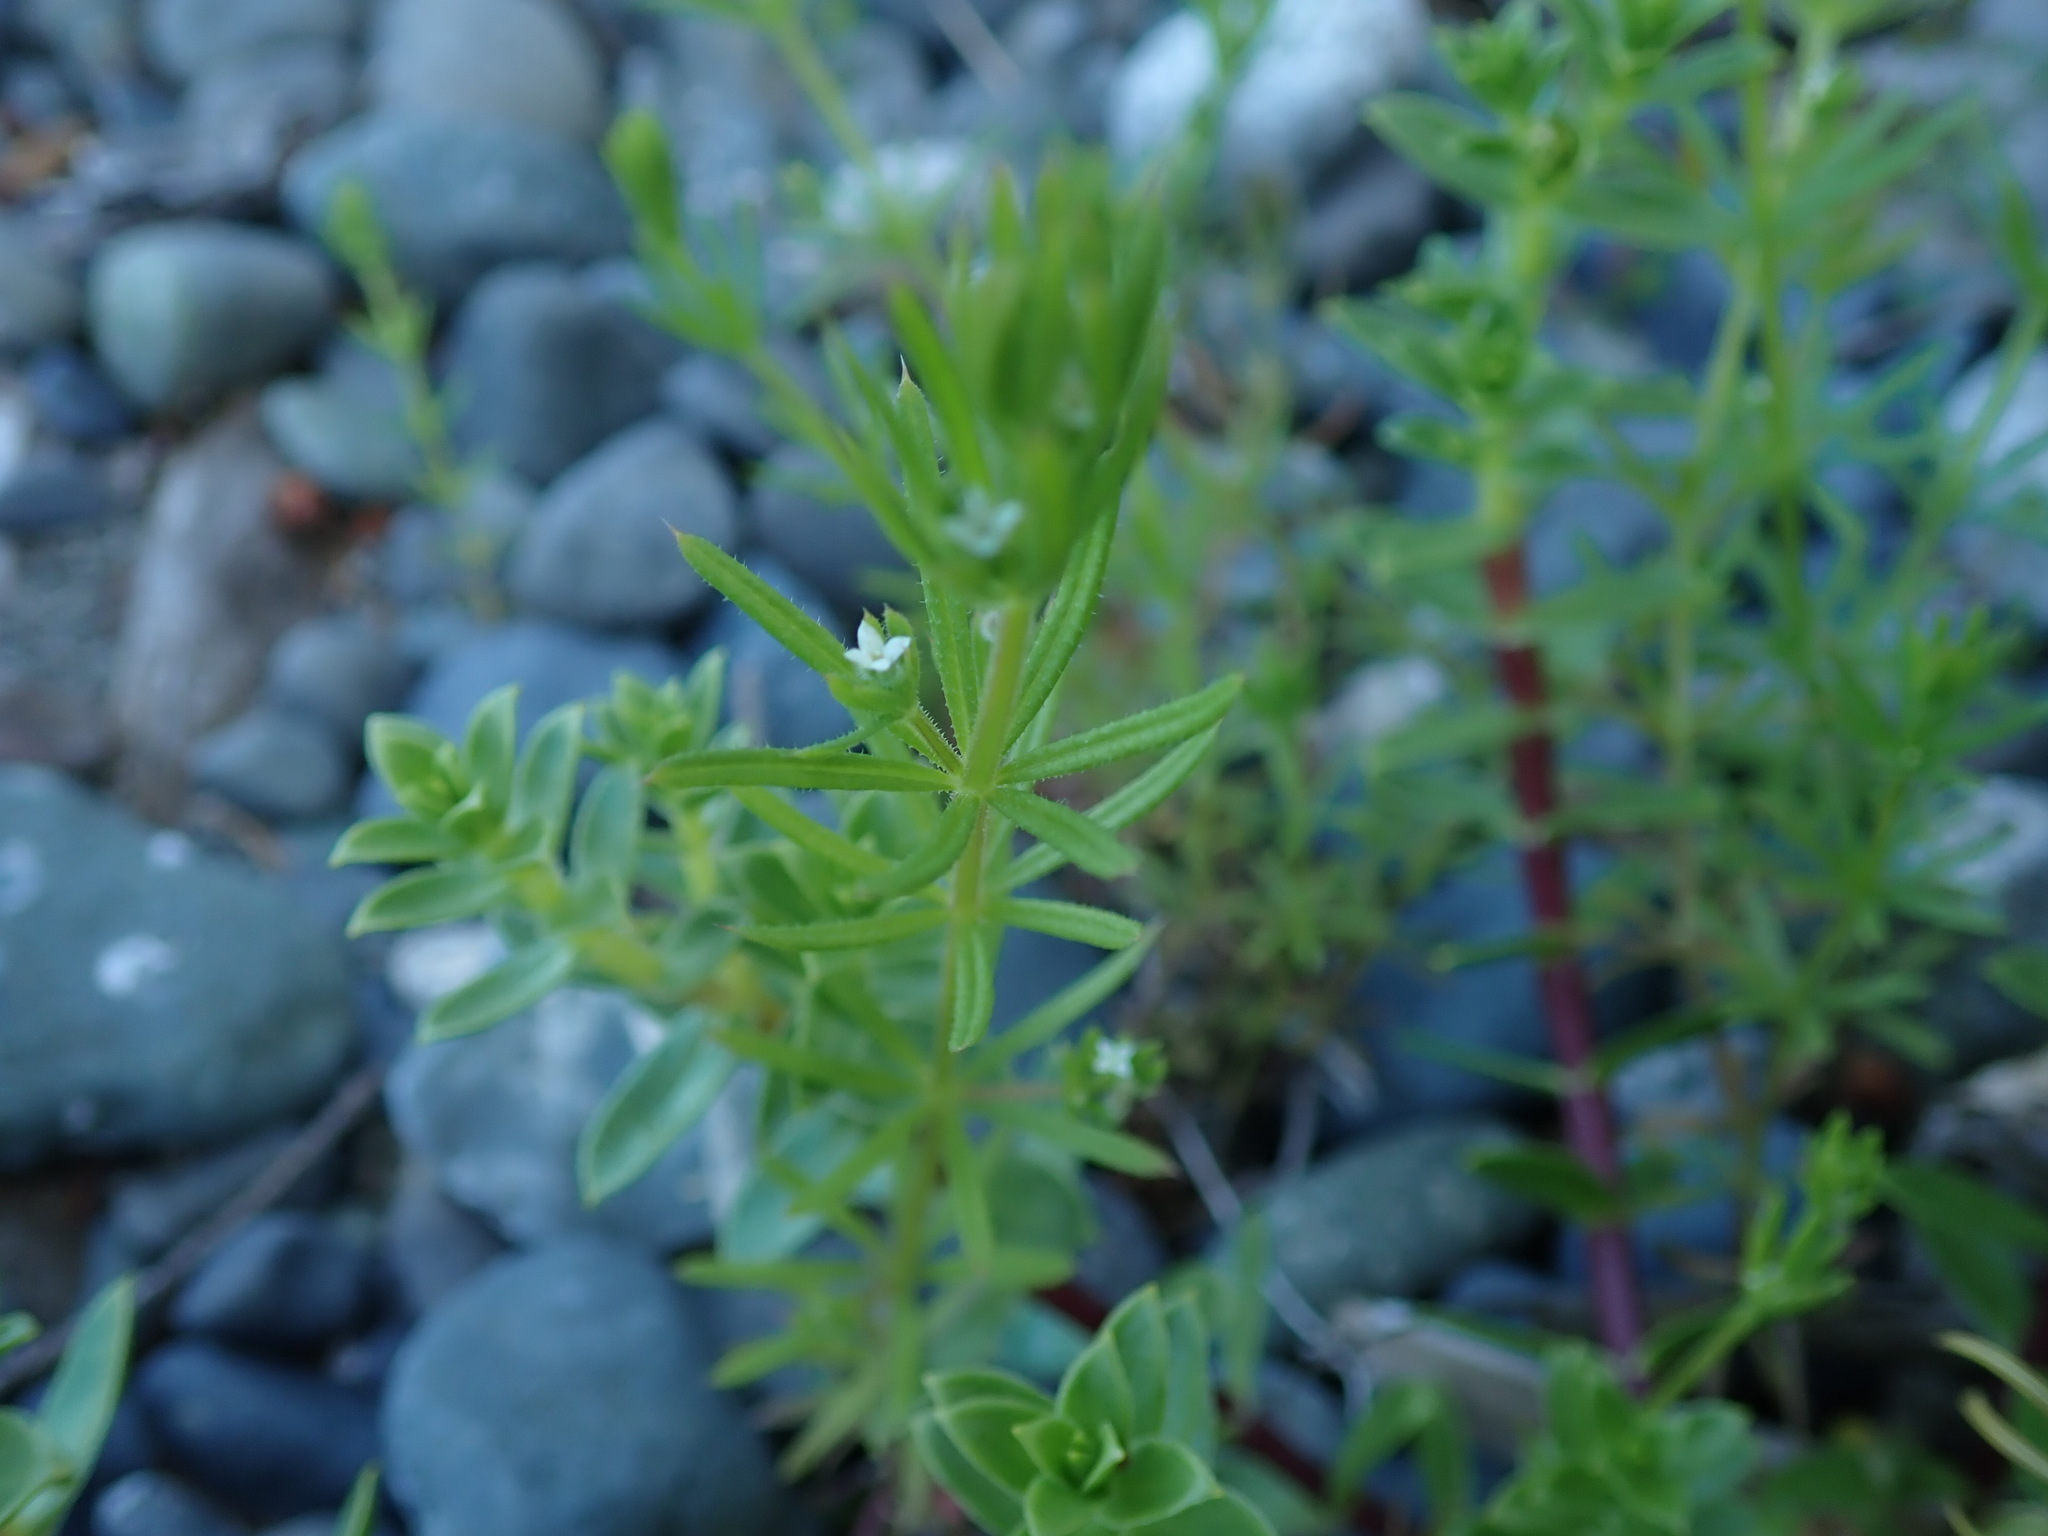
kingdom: Plantae
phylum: Tracheophyta
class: Magnoliopsida
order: Gentianales
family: Rubiaceae
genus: Galium
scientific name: Galium aparine
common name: Cleavers
